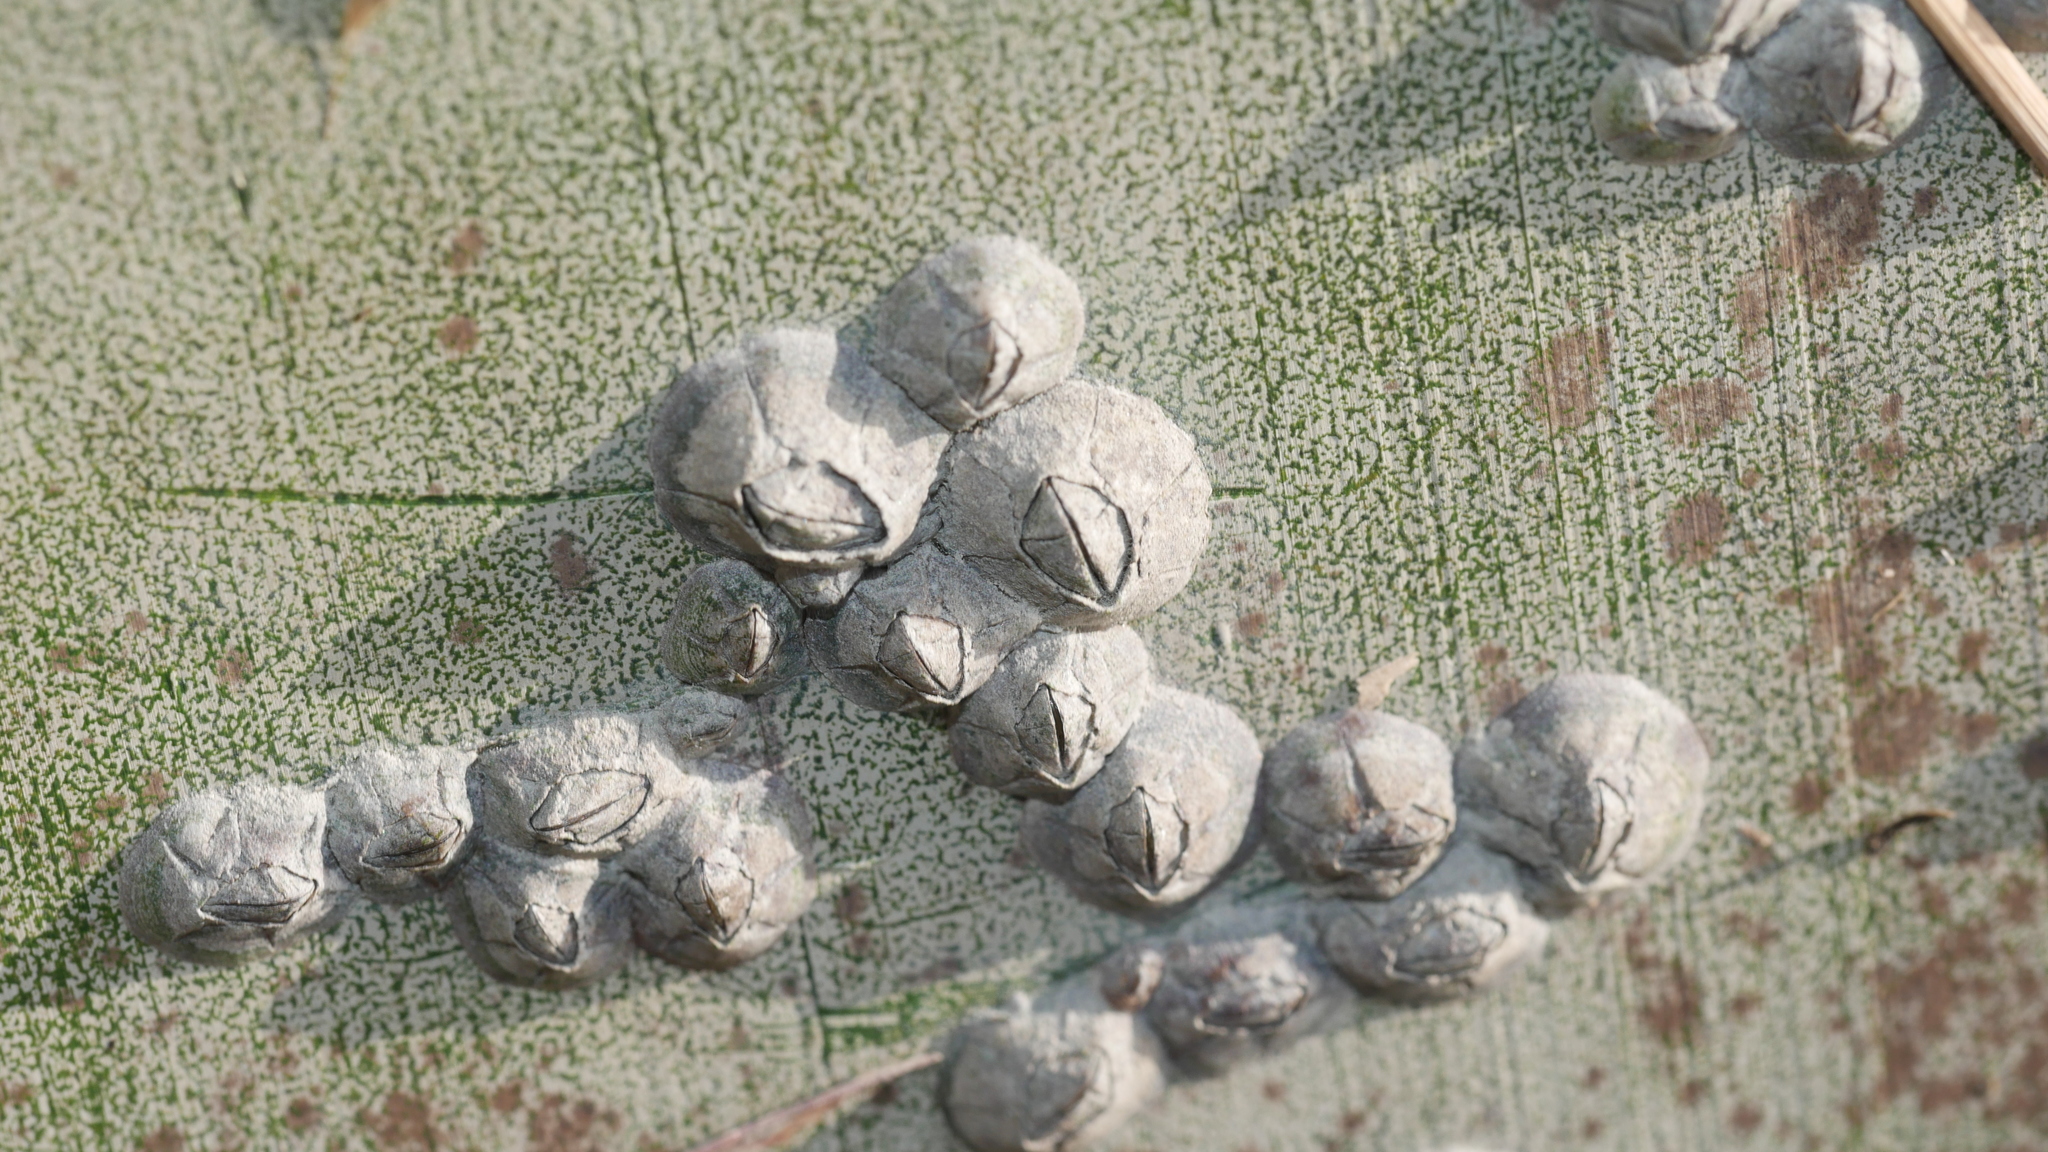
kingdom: Animalia
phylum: Arthropoda
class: Maxillopoda
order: Sessilia
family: Chthamalidae
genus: Chthamalus
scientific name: Chthamalus fragilis
